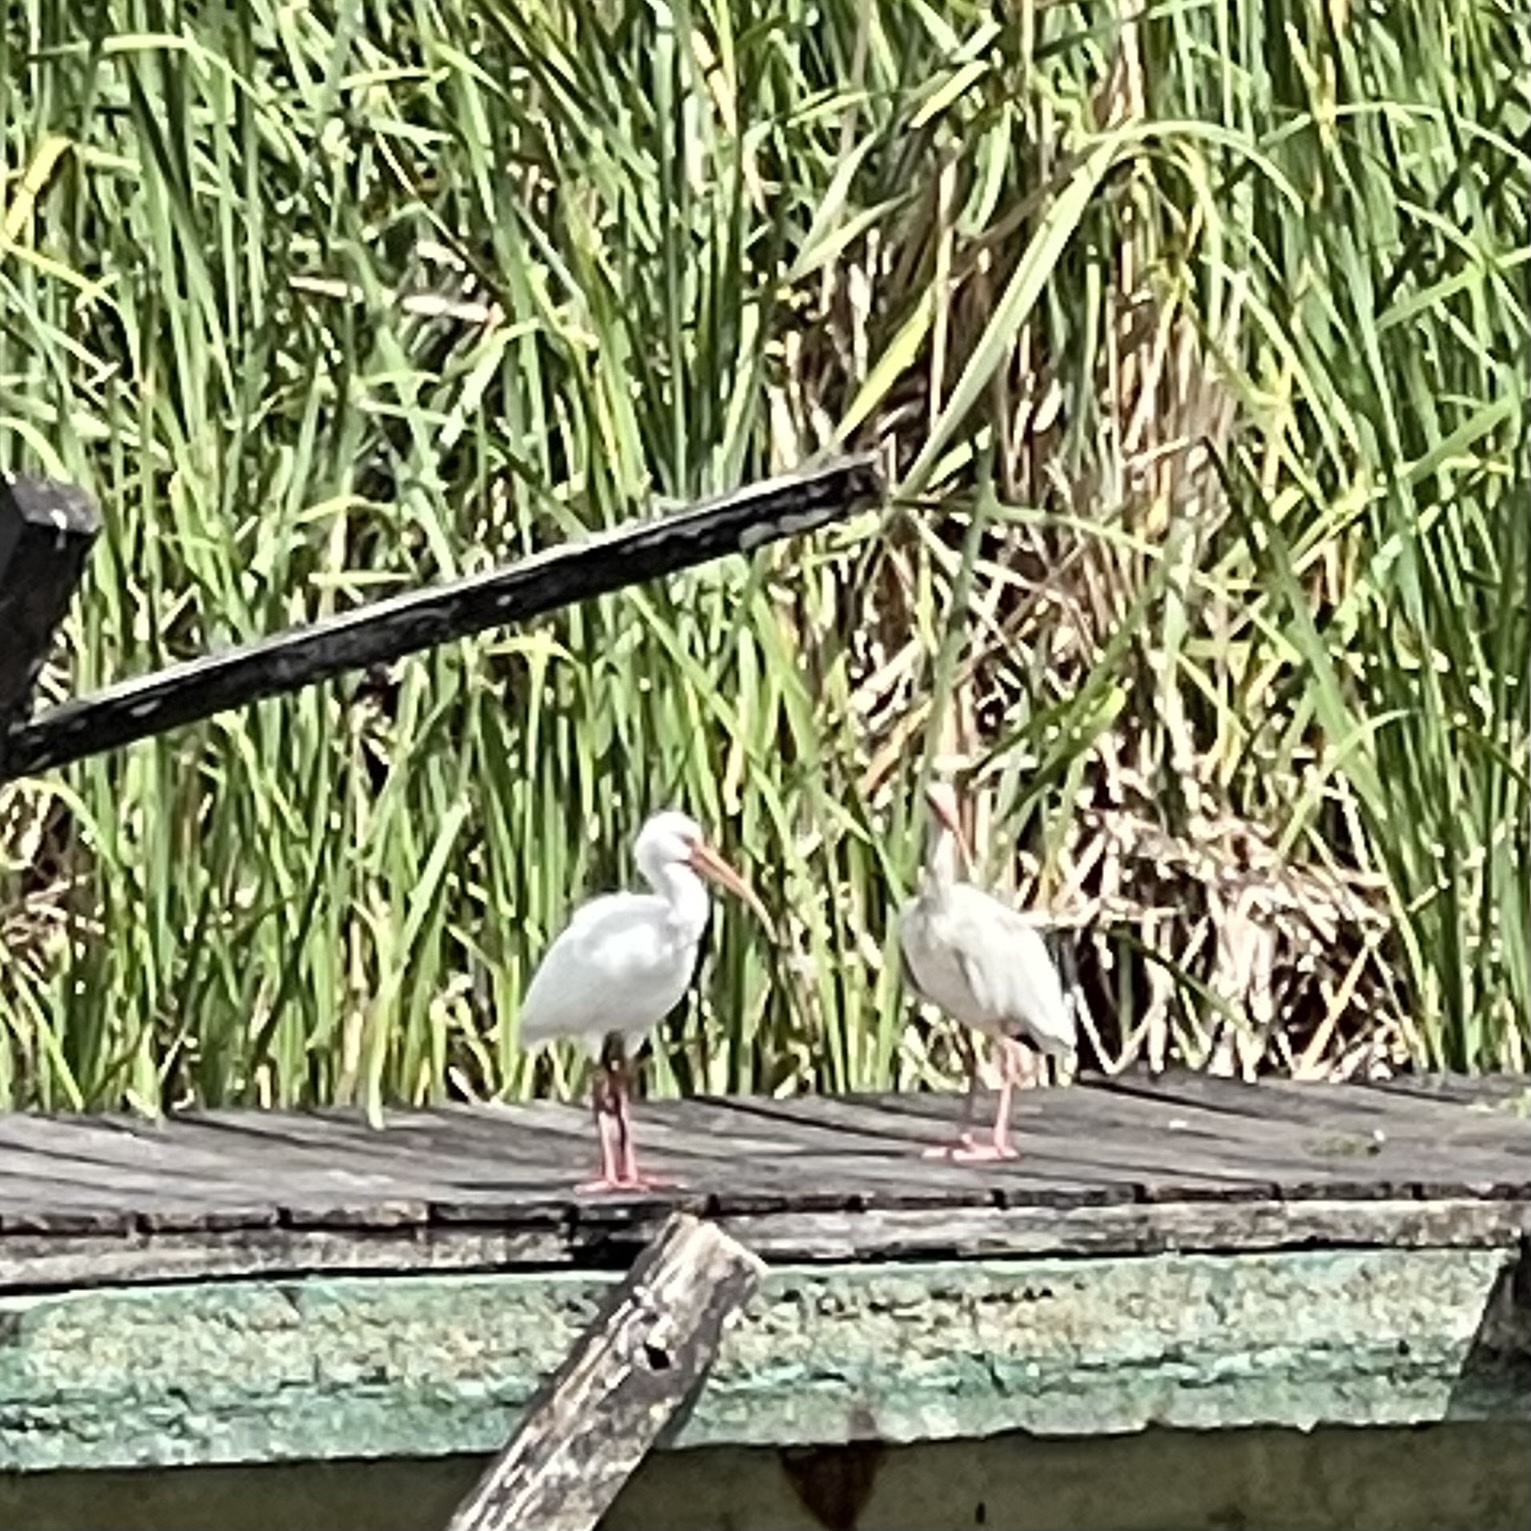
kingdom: Animalia
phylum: Chordata
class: Aves
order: Pelecaniformes
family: Threskiornithidae
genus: Eudocimus
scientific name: Eudocimus albus
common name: White ibis
